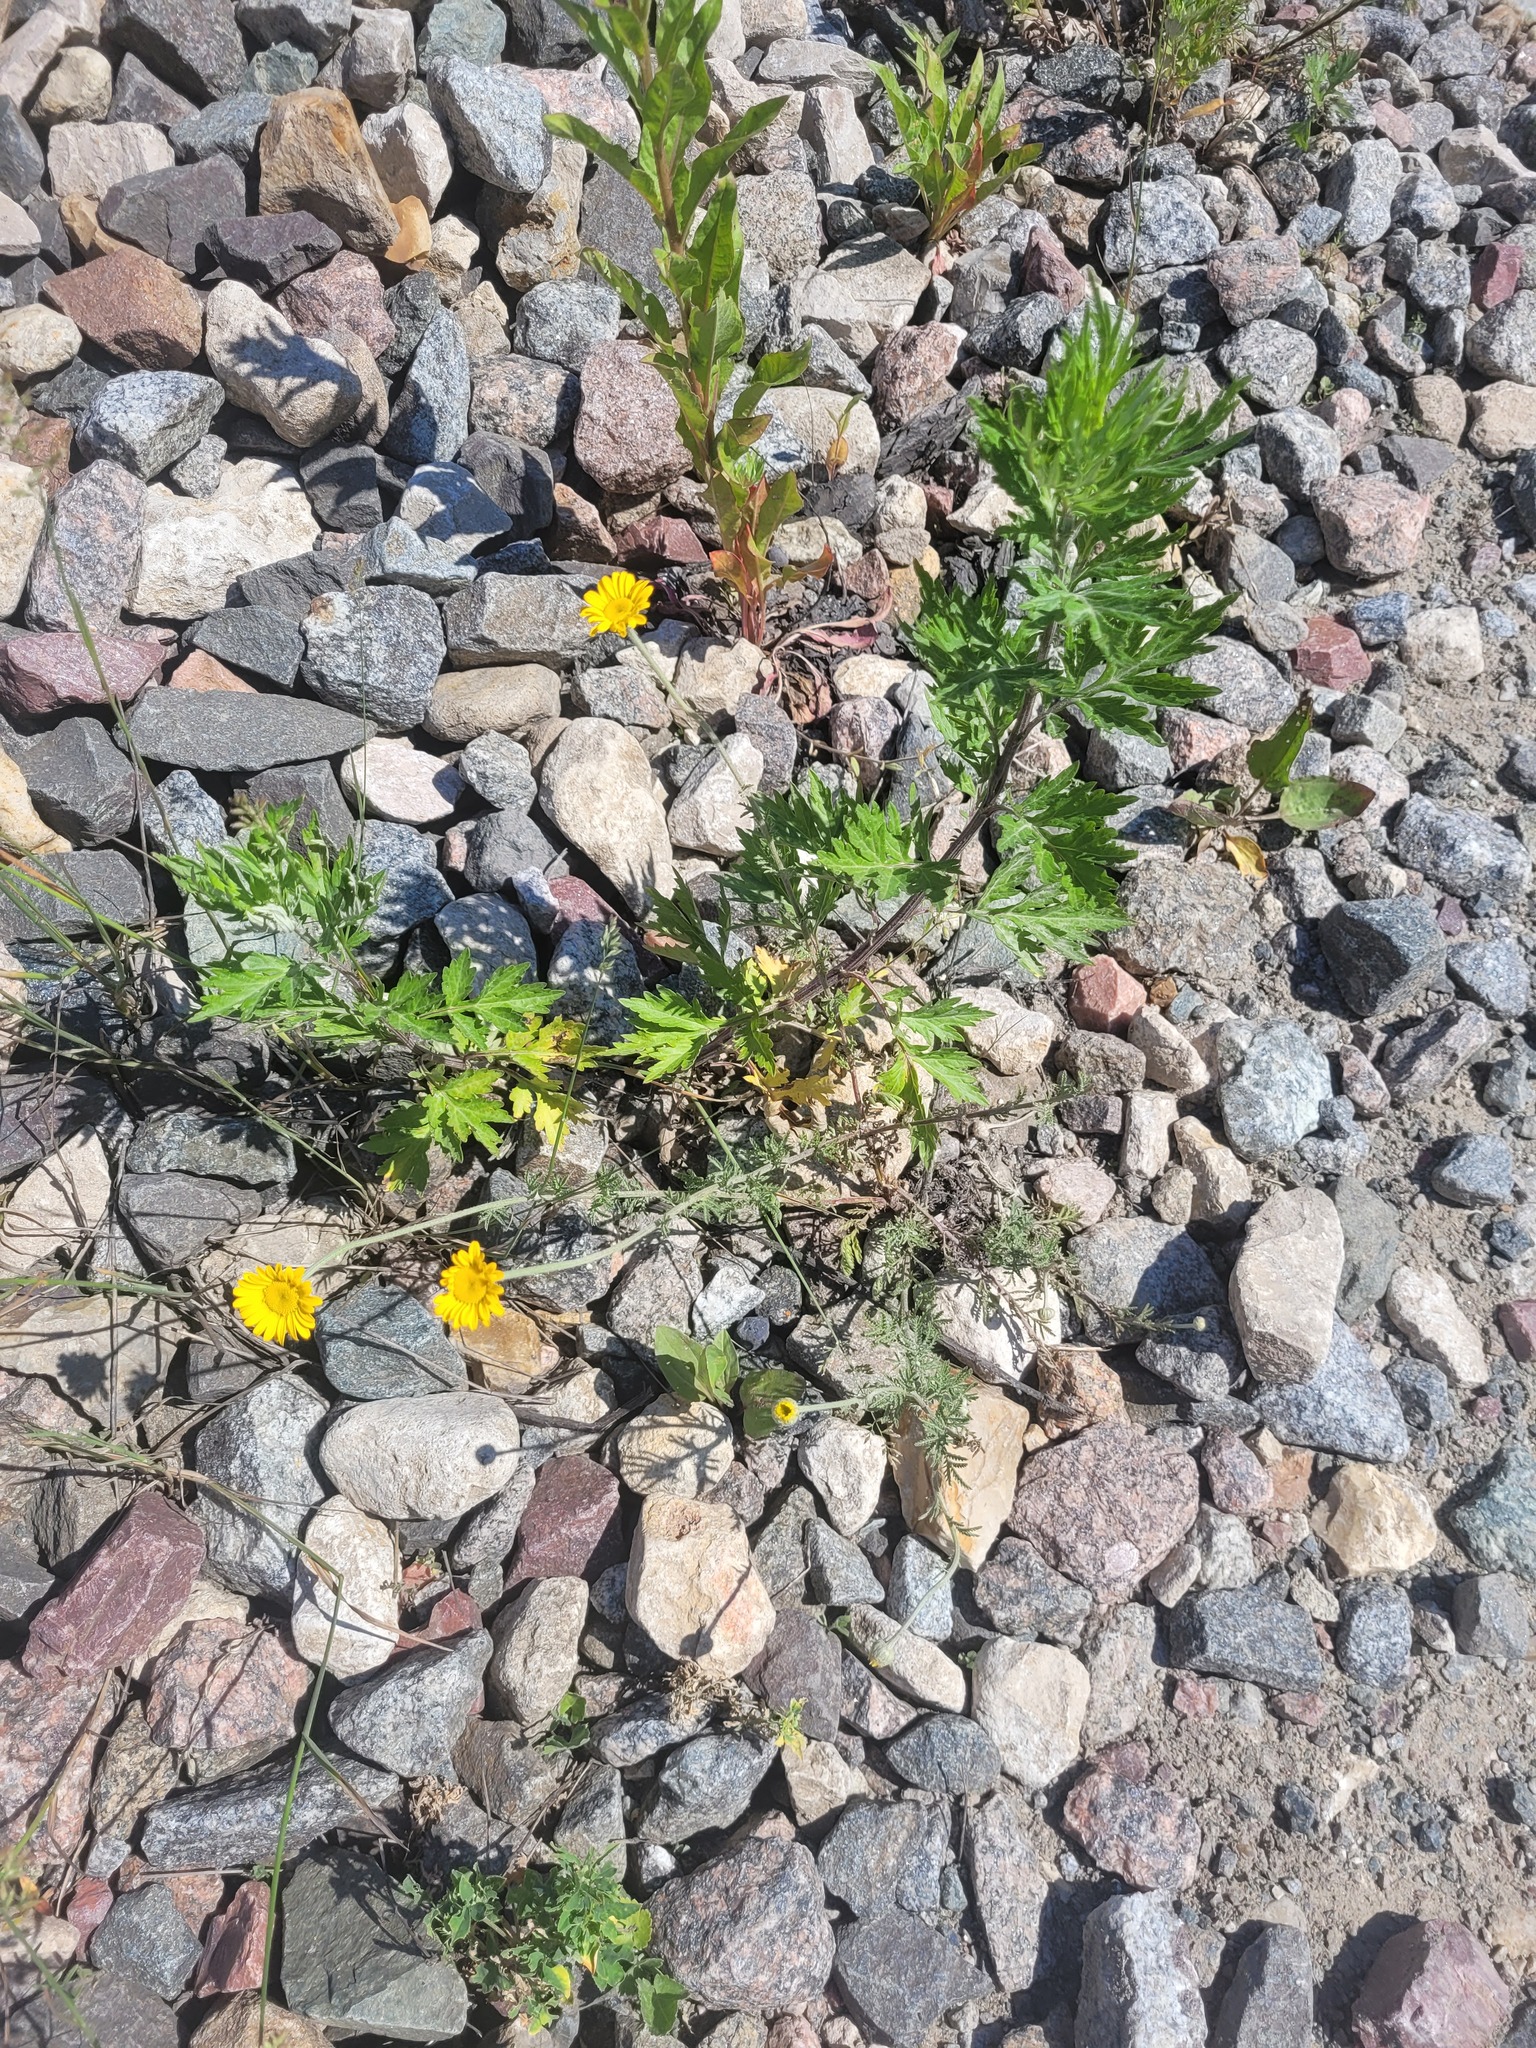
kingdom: Plantae
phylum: Tracheophyta
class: Magnoliopsida
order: Asterales
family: Asteraceae
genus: Artemisia
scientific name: Artemisia vulgaris
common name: Mugwort
